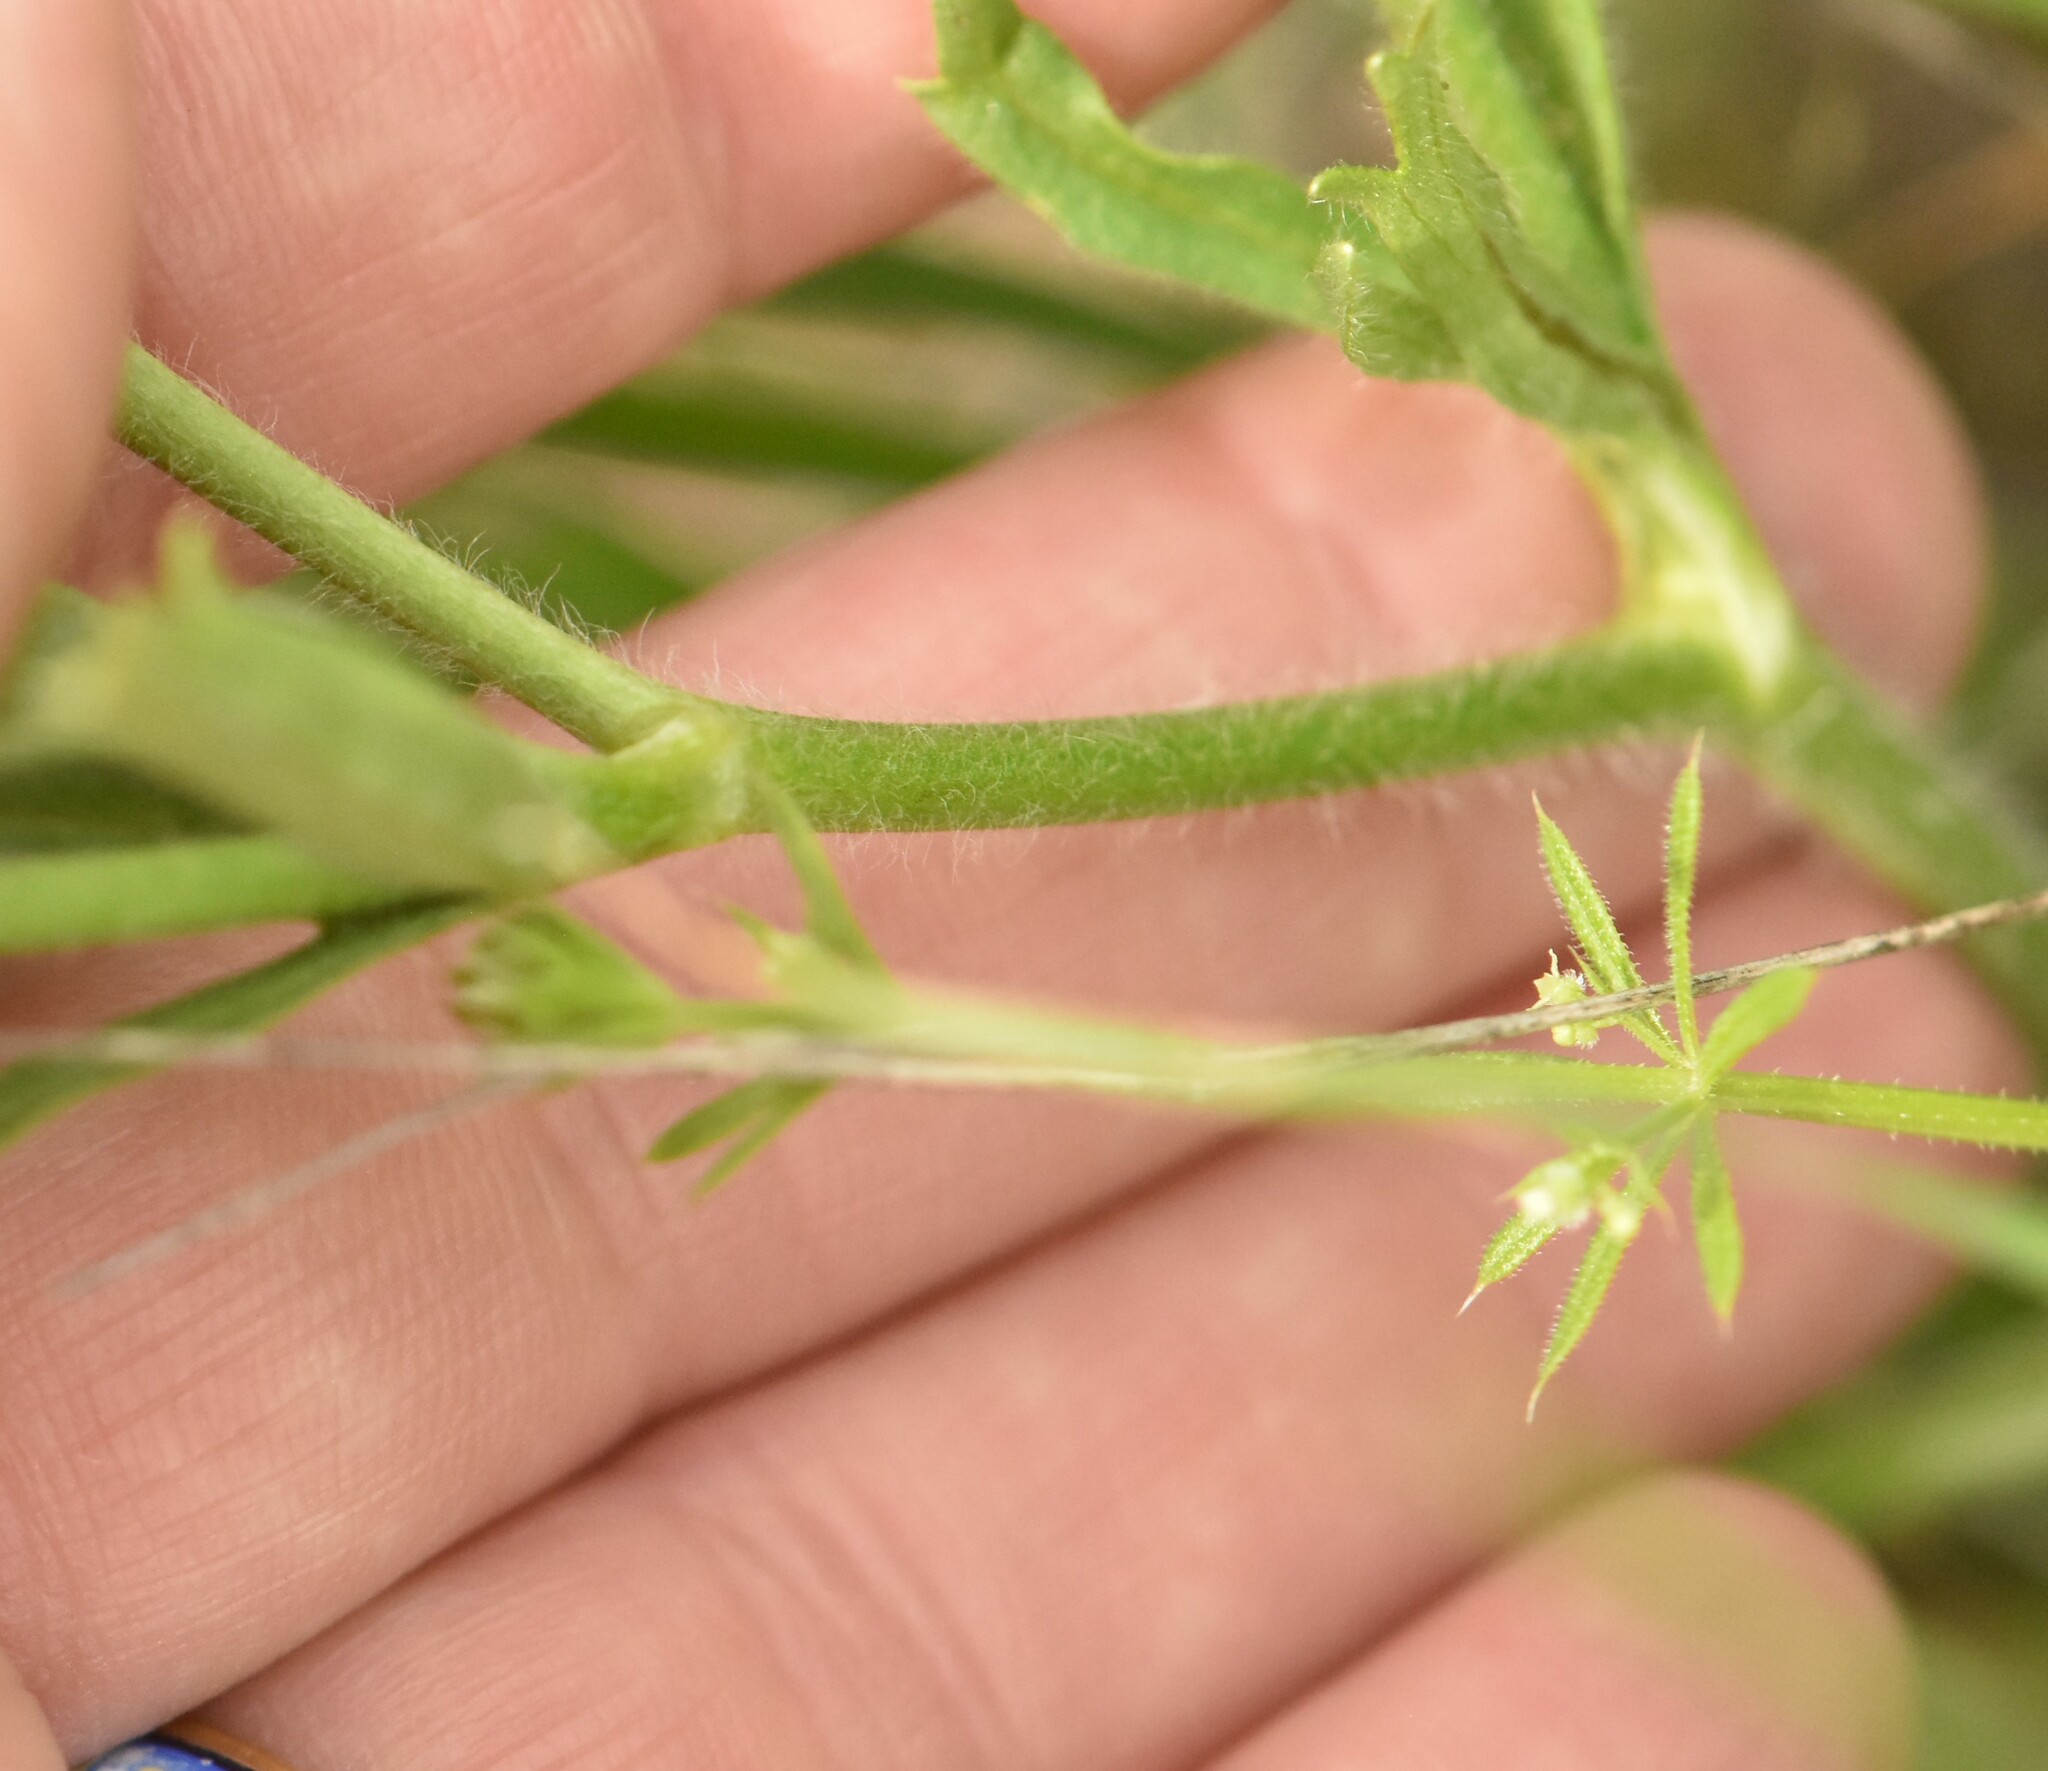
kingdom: Plantae
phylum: Tracheophyta
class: Magnoliopsida
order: Ranunculales
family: Ranunculaceae
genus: Ranunculus
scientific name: Ranunculus oxyspermus
